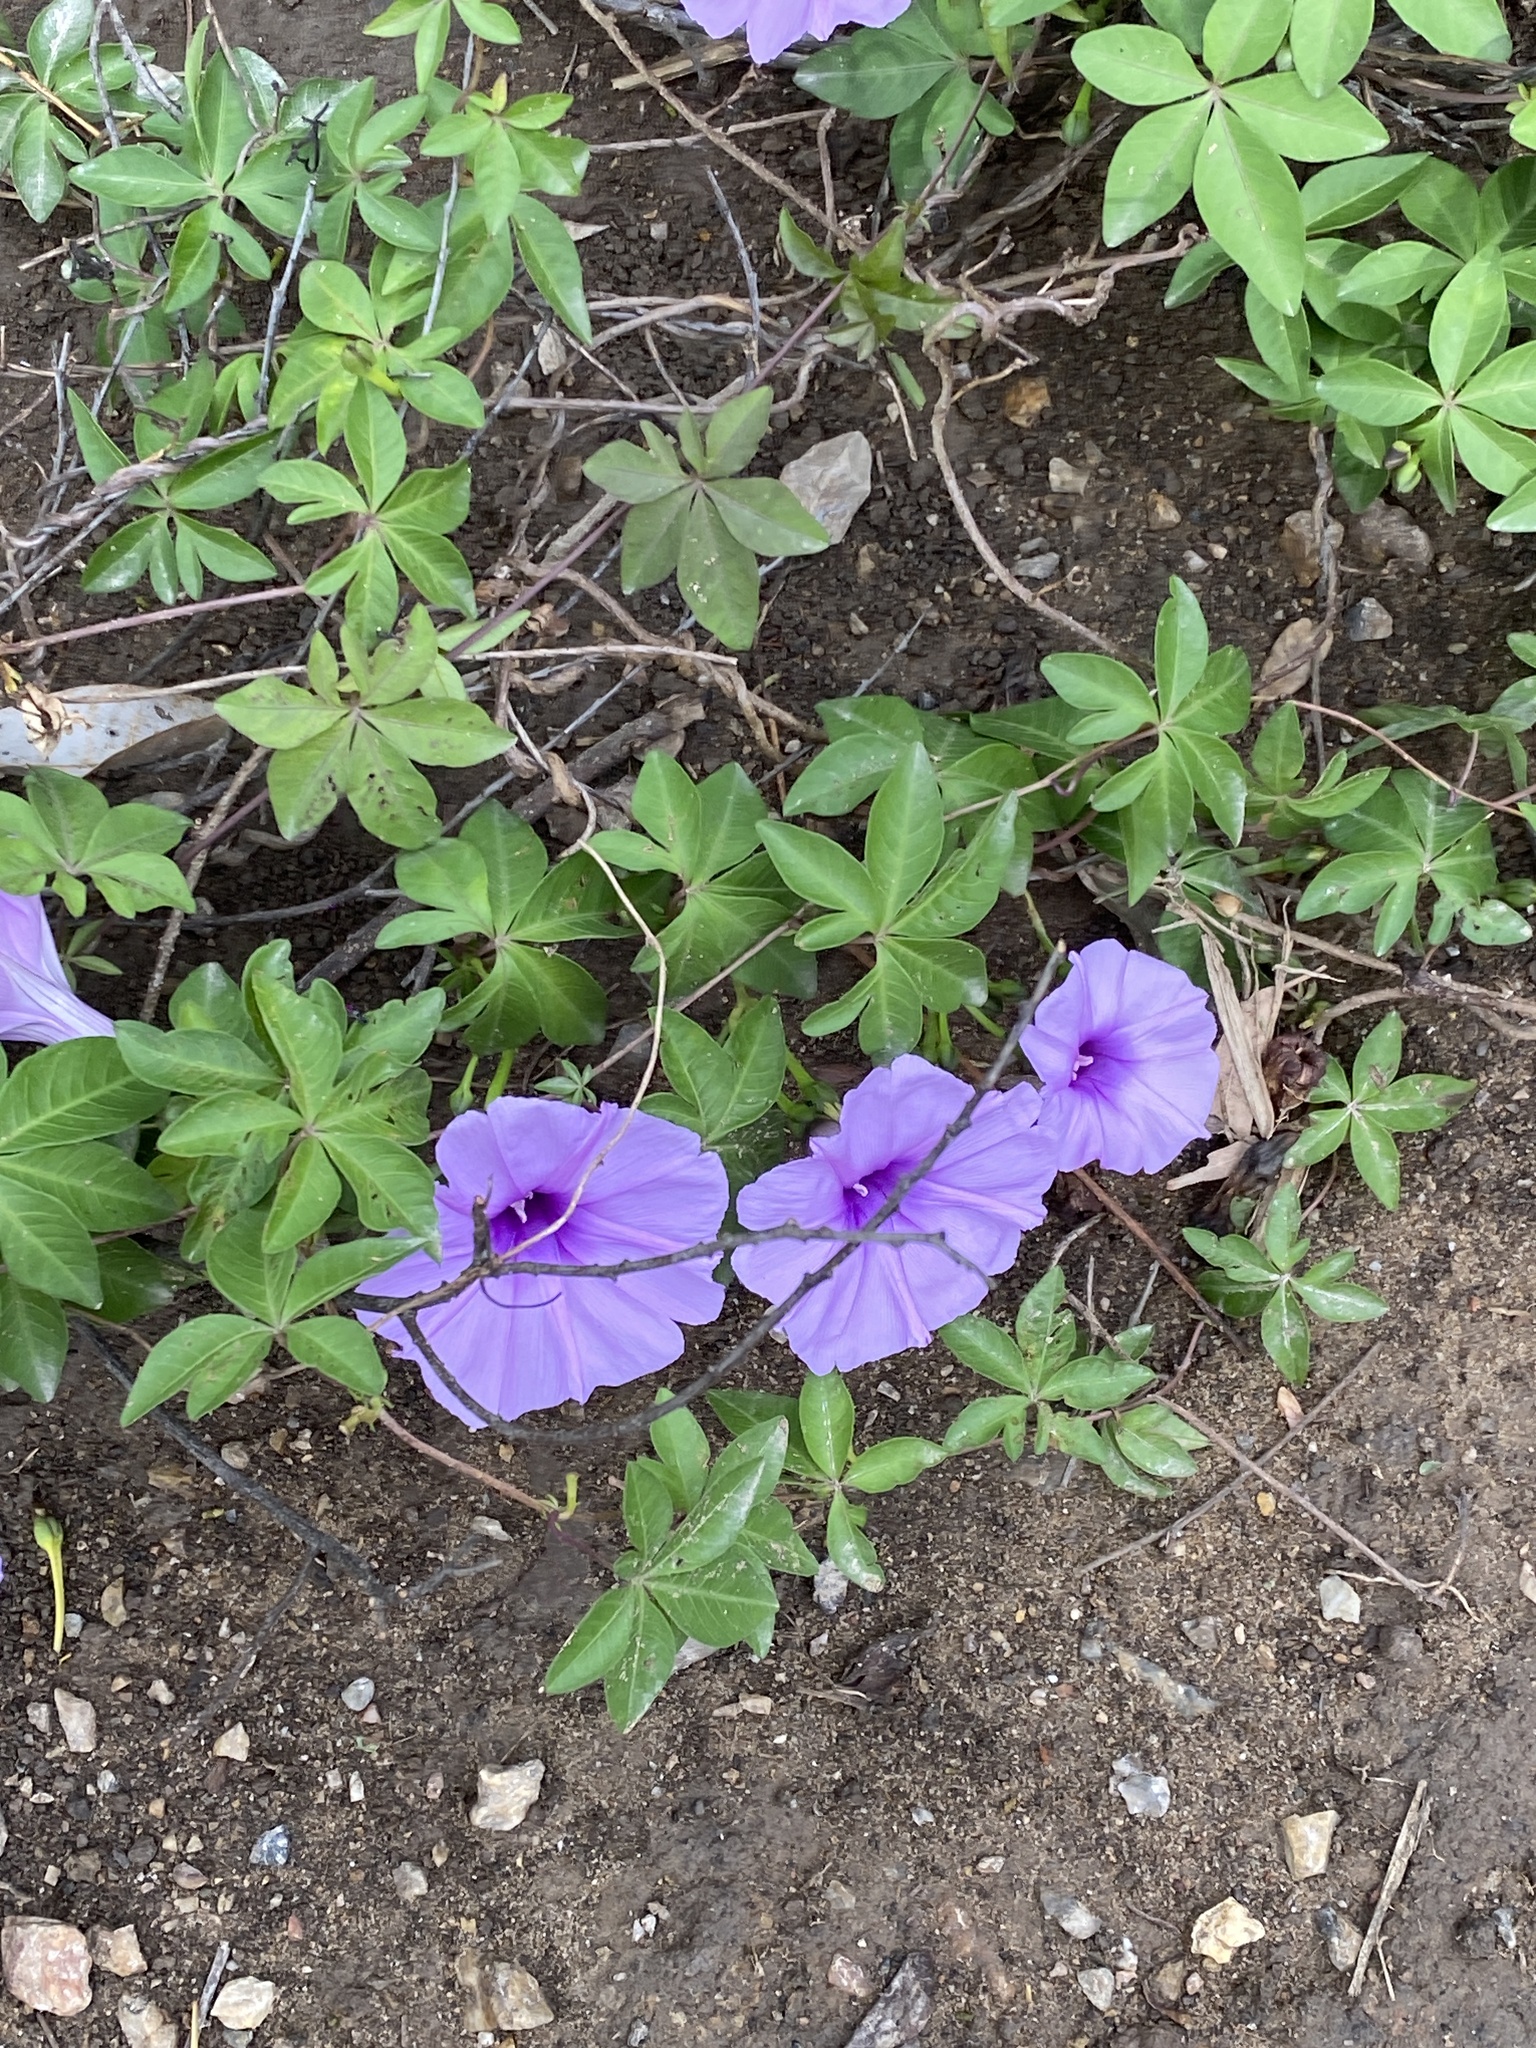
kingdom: Plantae
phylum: Tracheophyta
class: Magnoliopsida
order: Solanales
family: Convolvulaceae
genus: Ipomoea
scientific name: Ipomoea cairica
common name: Mile a minute vine
